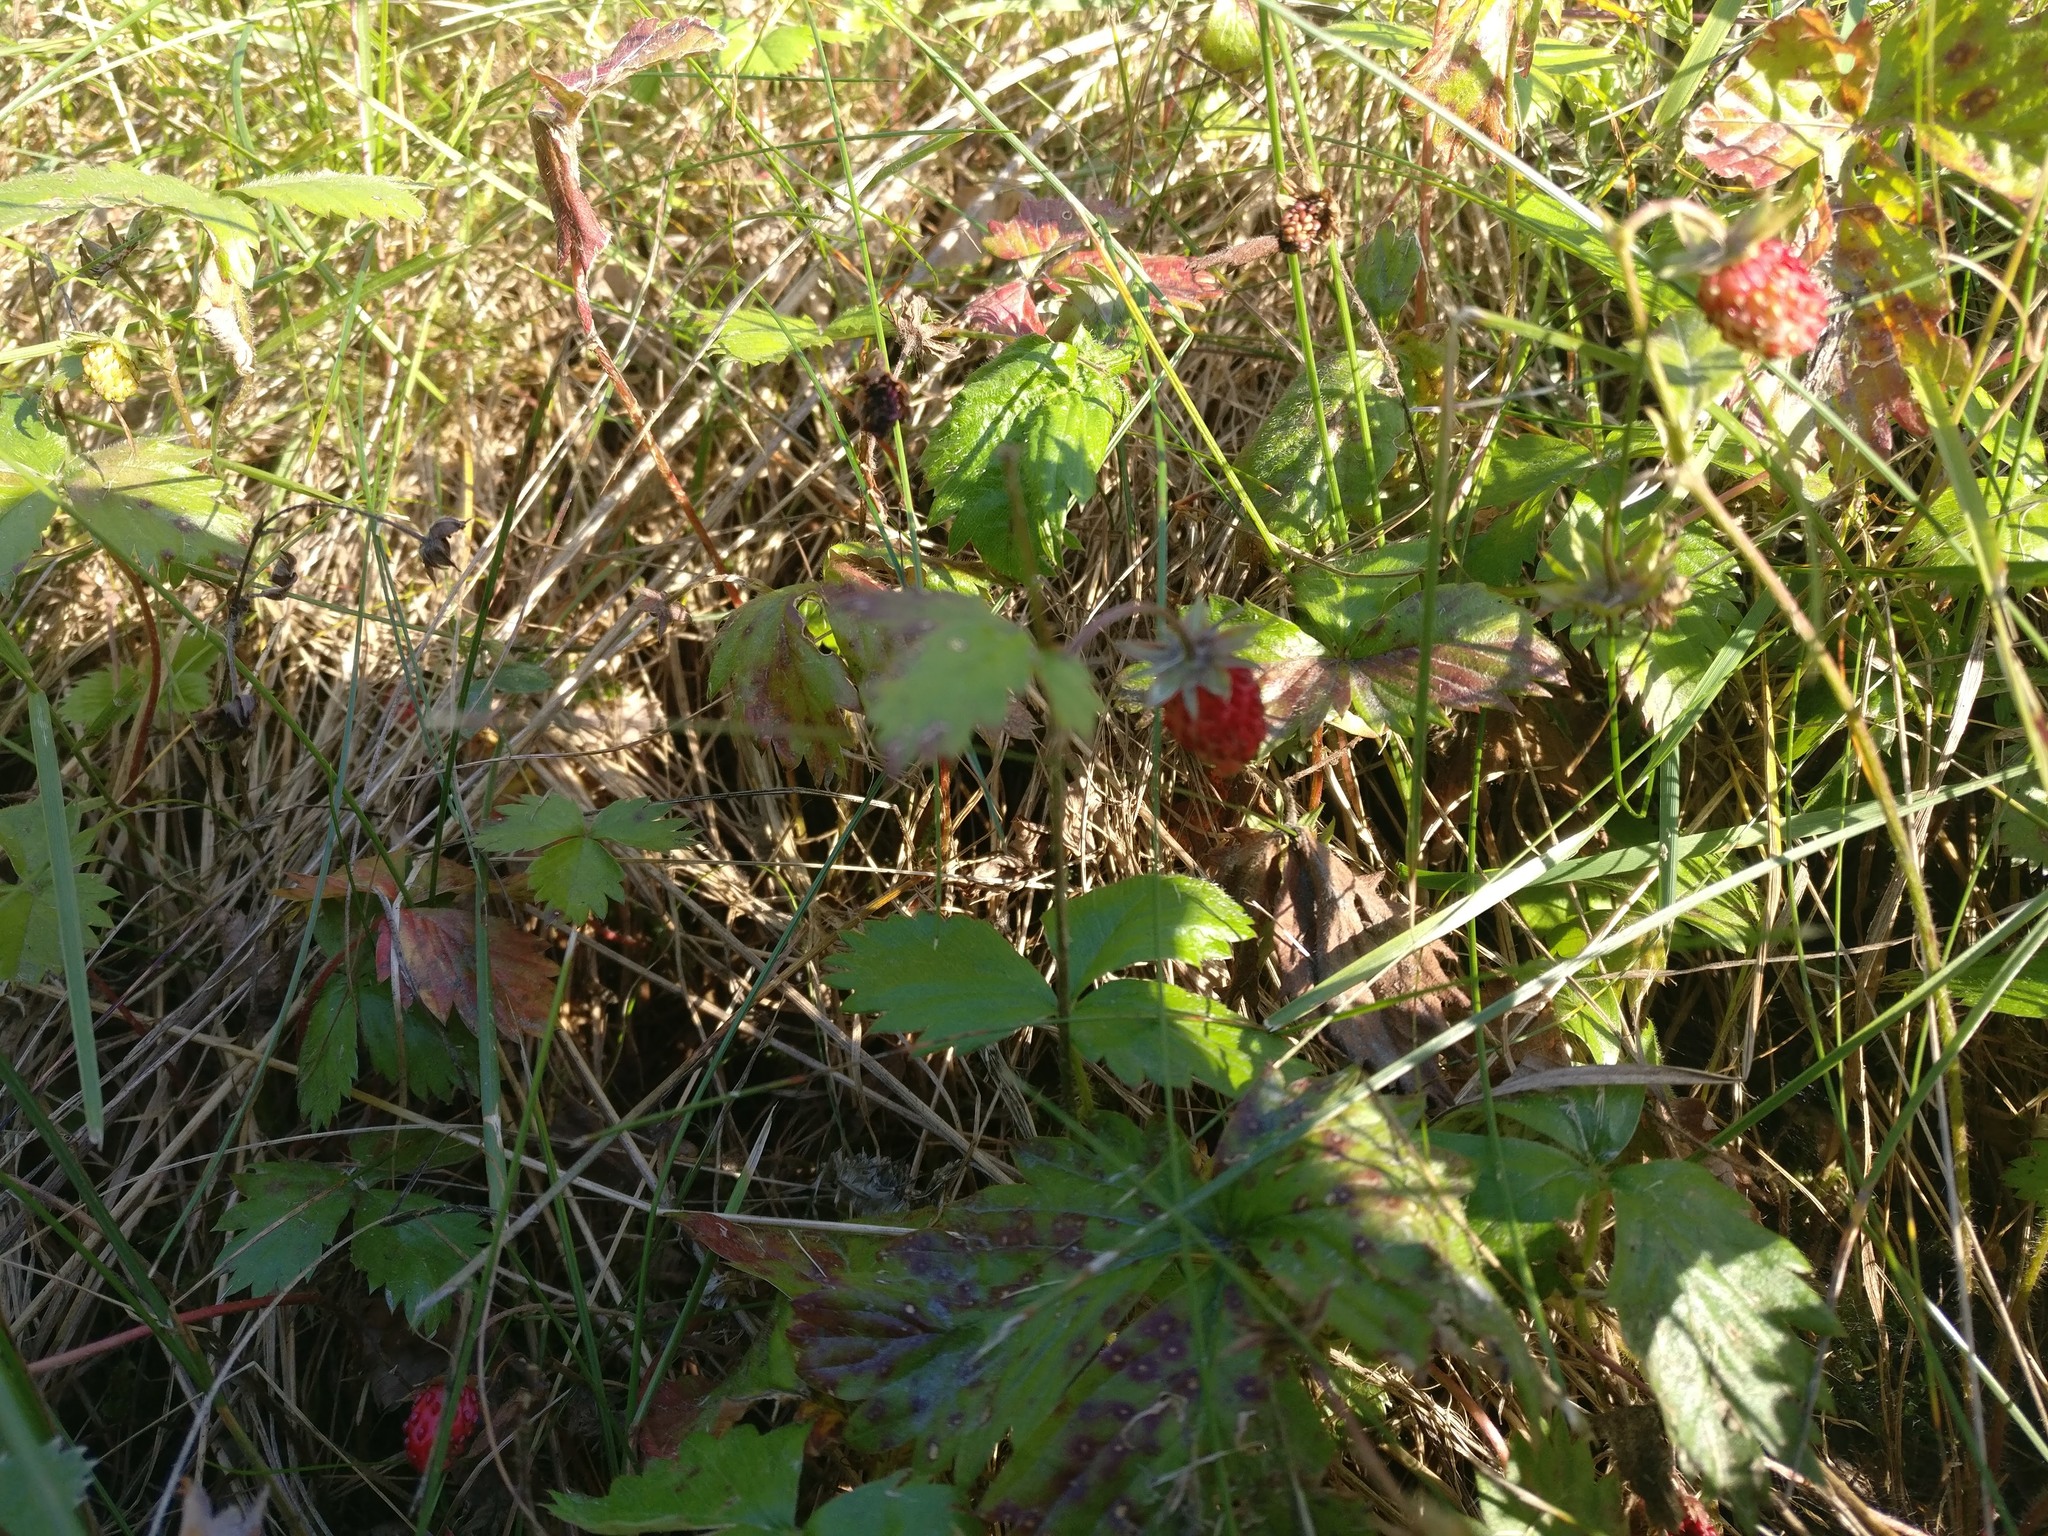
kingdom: Plantae
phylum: Tracheophyta
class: Magnoliopsida
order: Rosales
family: Rosaceae
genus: Fragaria
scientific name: Fragaria vesca
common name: Wild strawberry
